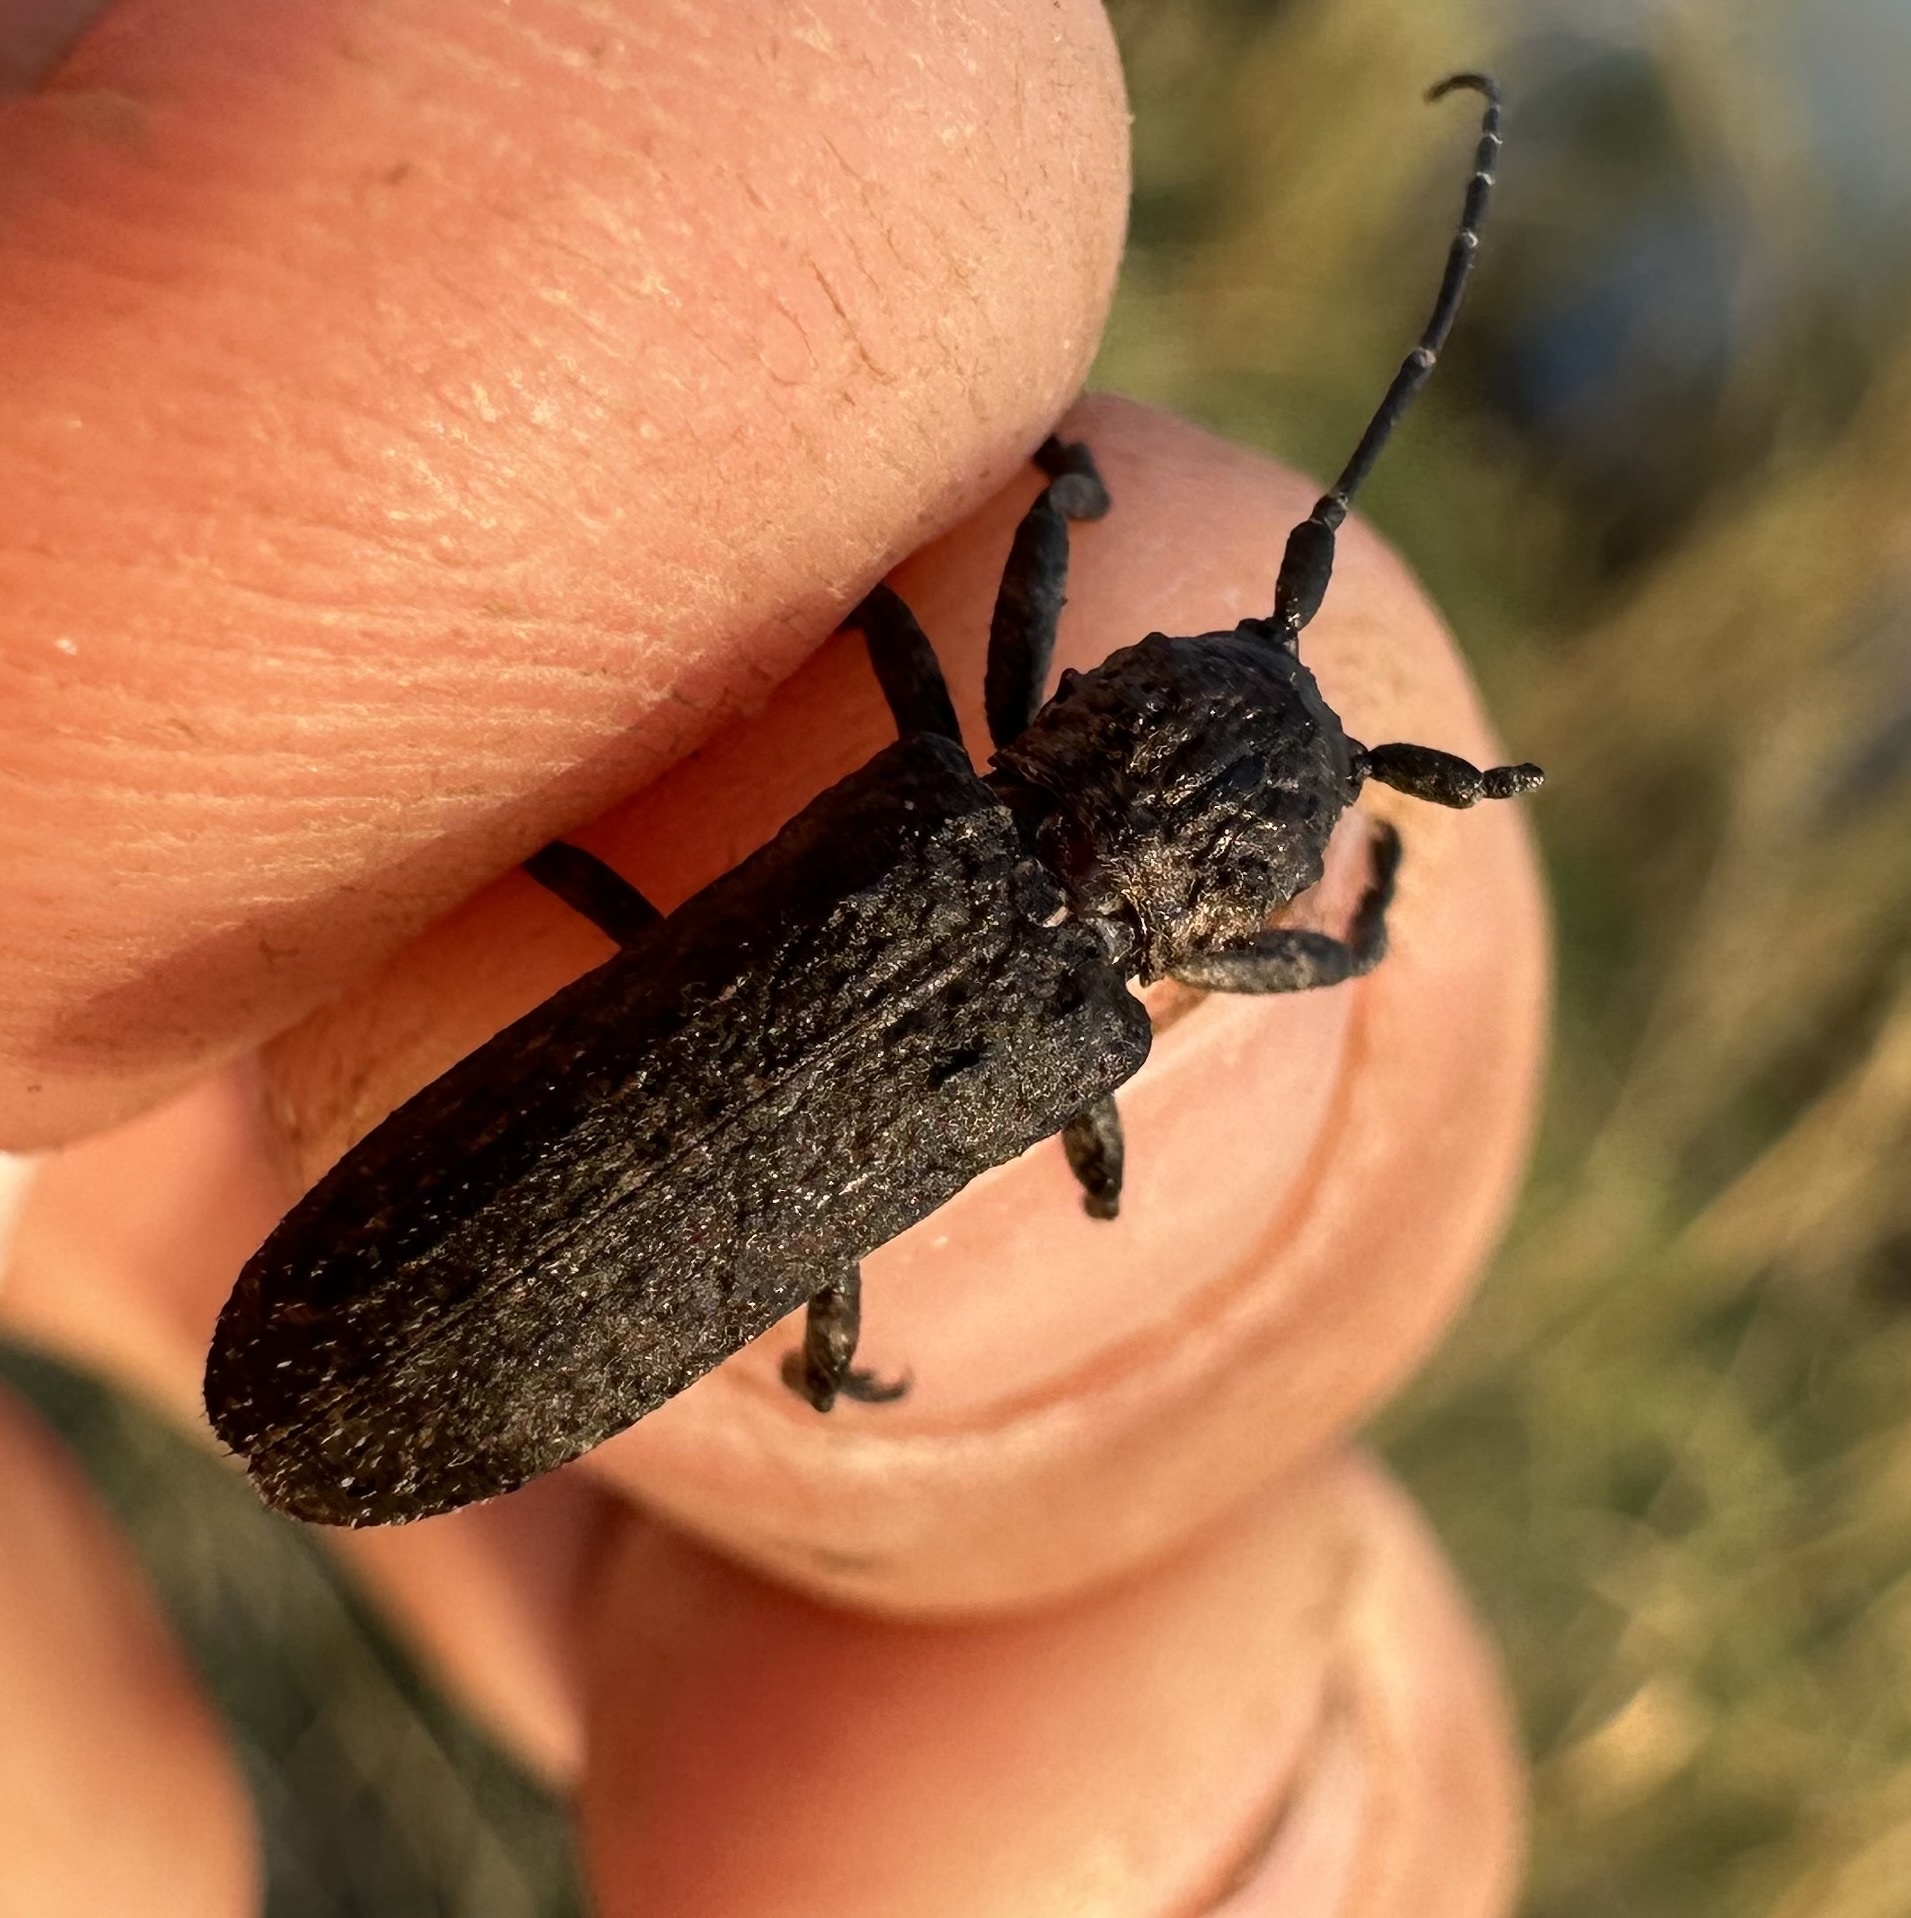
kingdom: Animalia
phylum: Arthropoda
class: Insecta
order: Coleoptera
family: Cerambycidae
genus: Hecyra
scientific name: Hecyra obscurator
